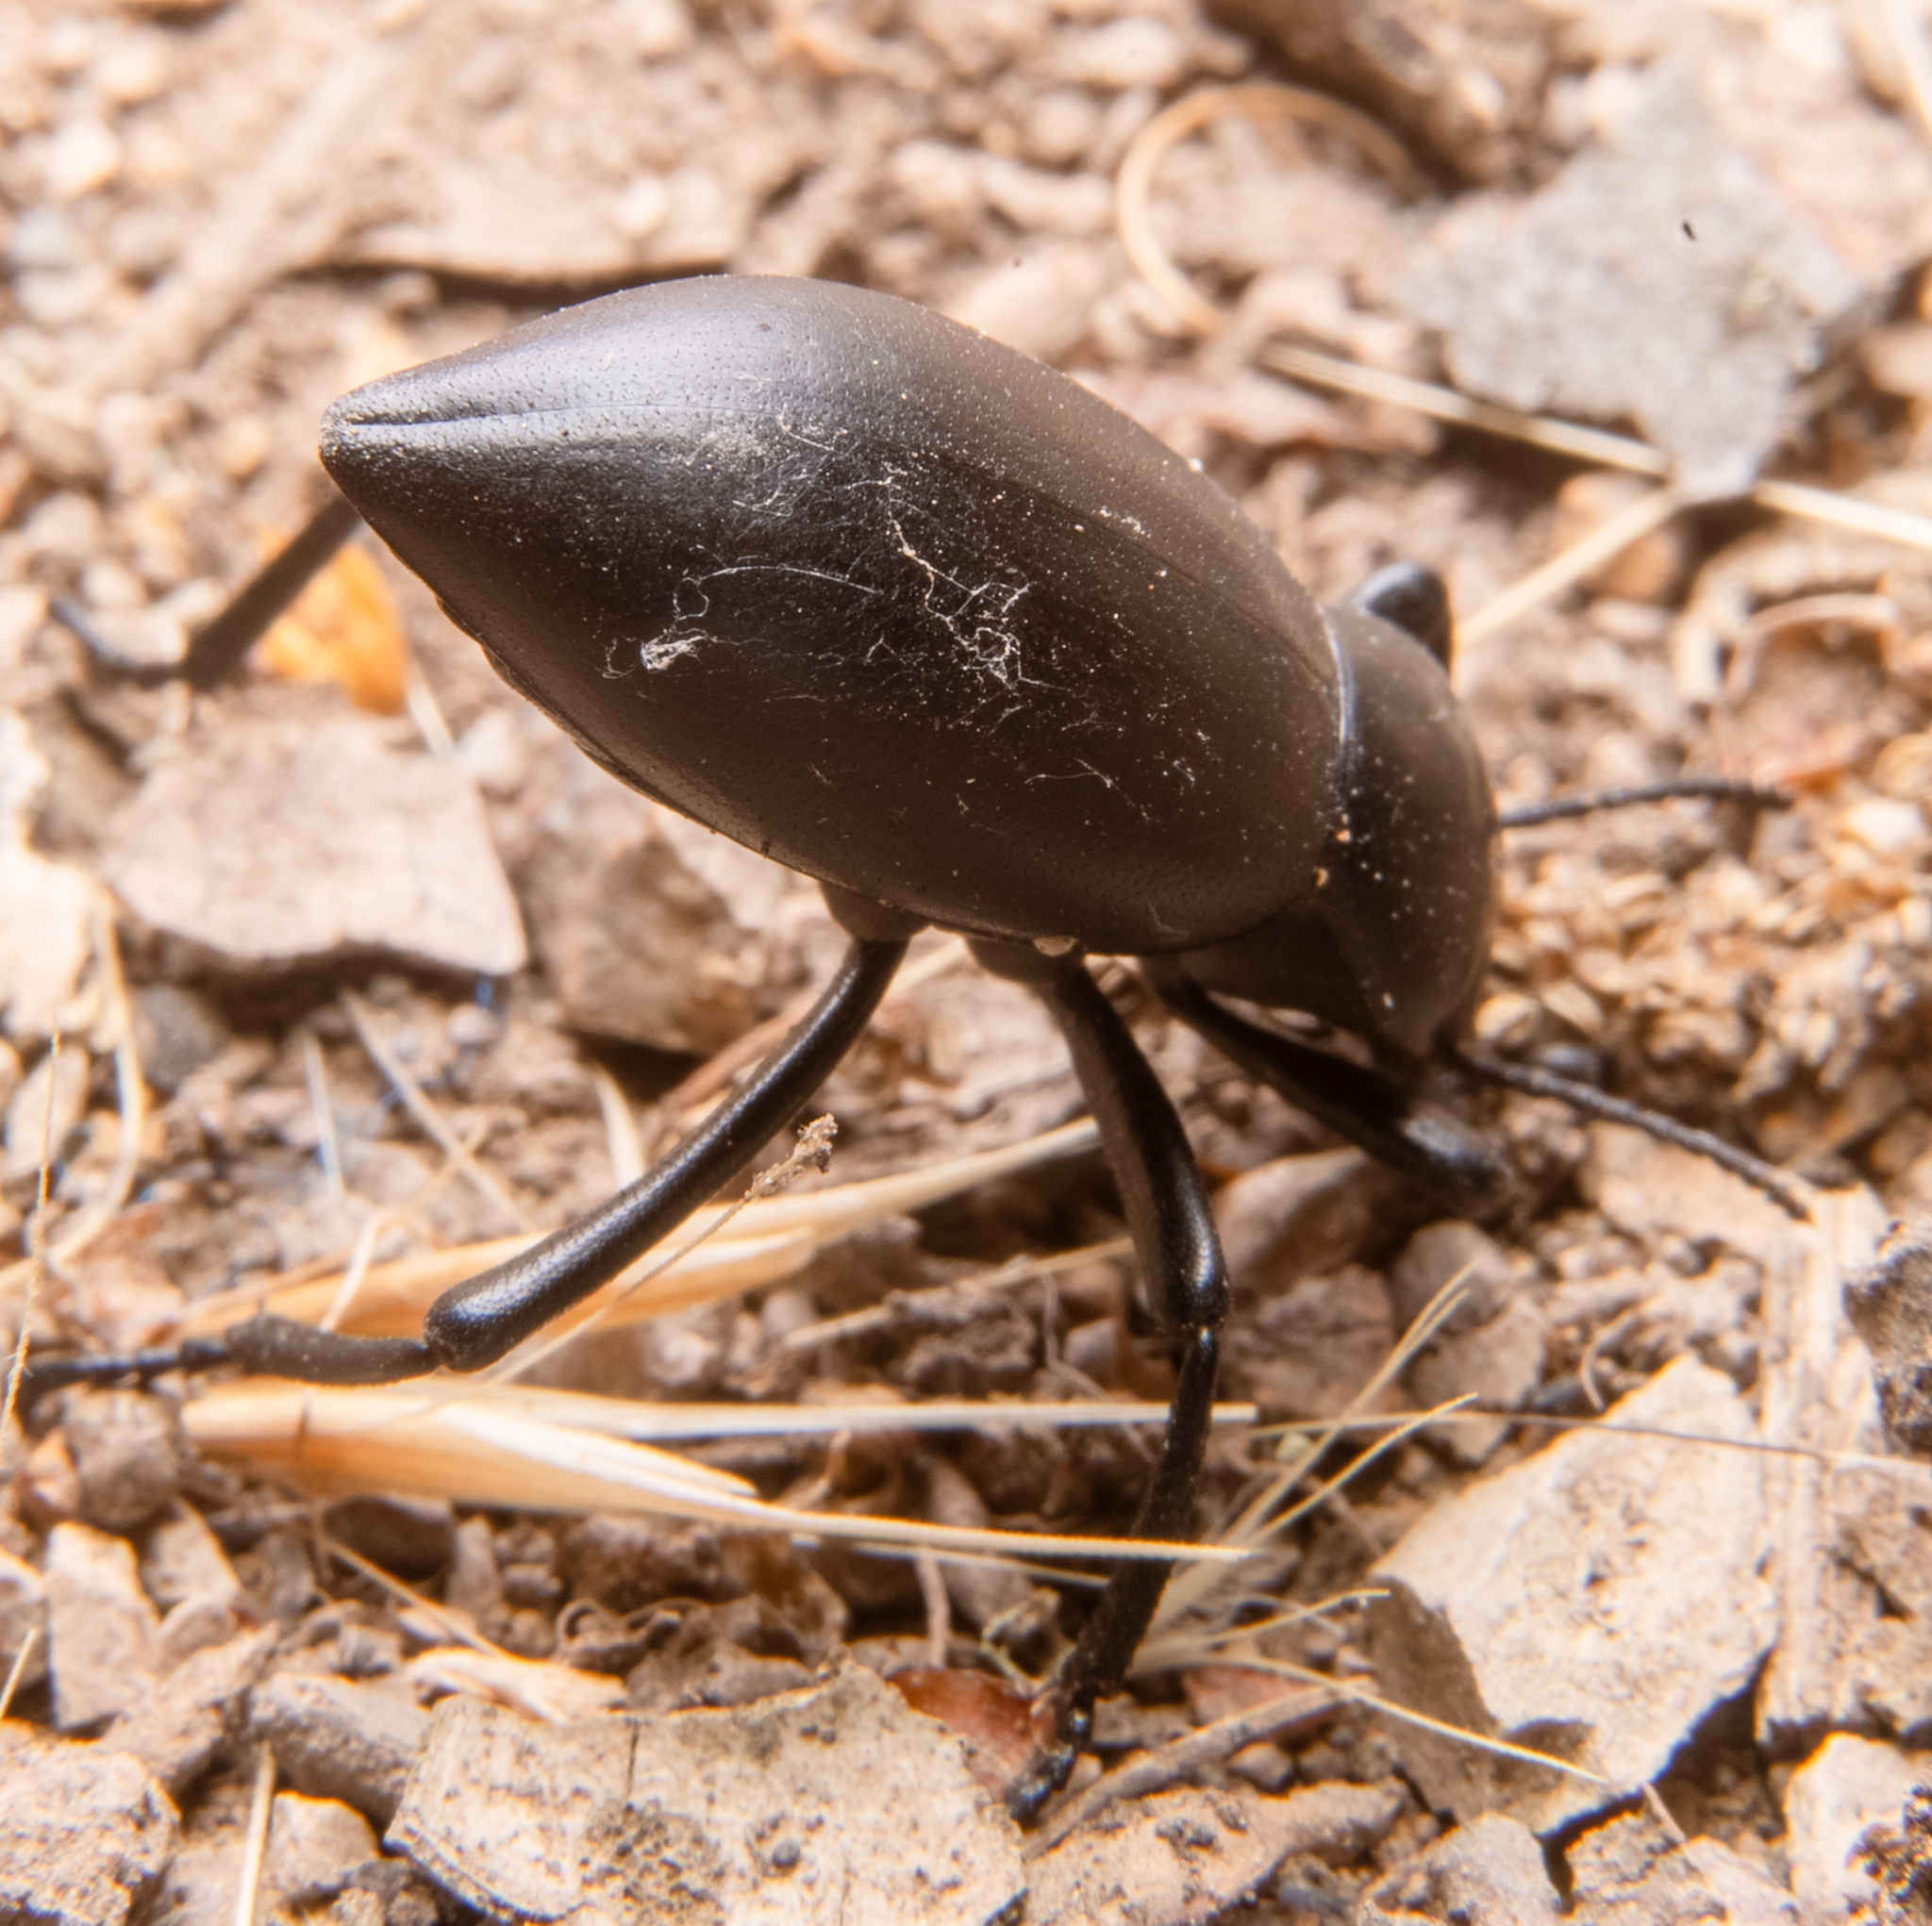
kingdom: Animalia
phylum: Arthropoda
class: Insecta
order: Coleoptera
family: Tenebrionidae
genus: Eleodes
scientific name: Eleodes dentipes
